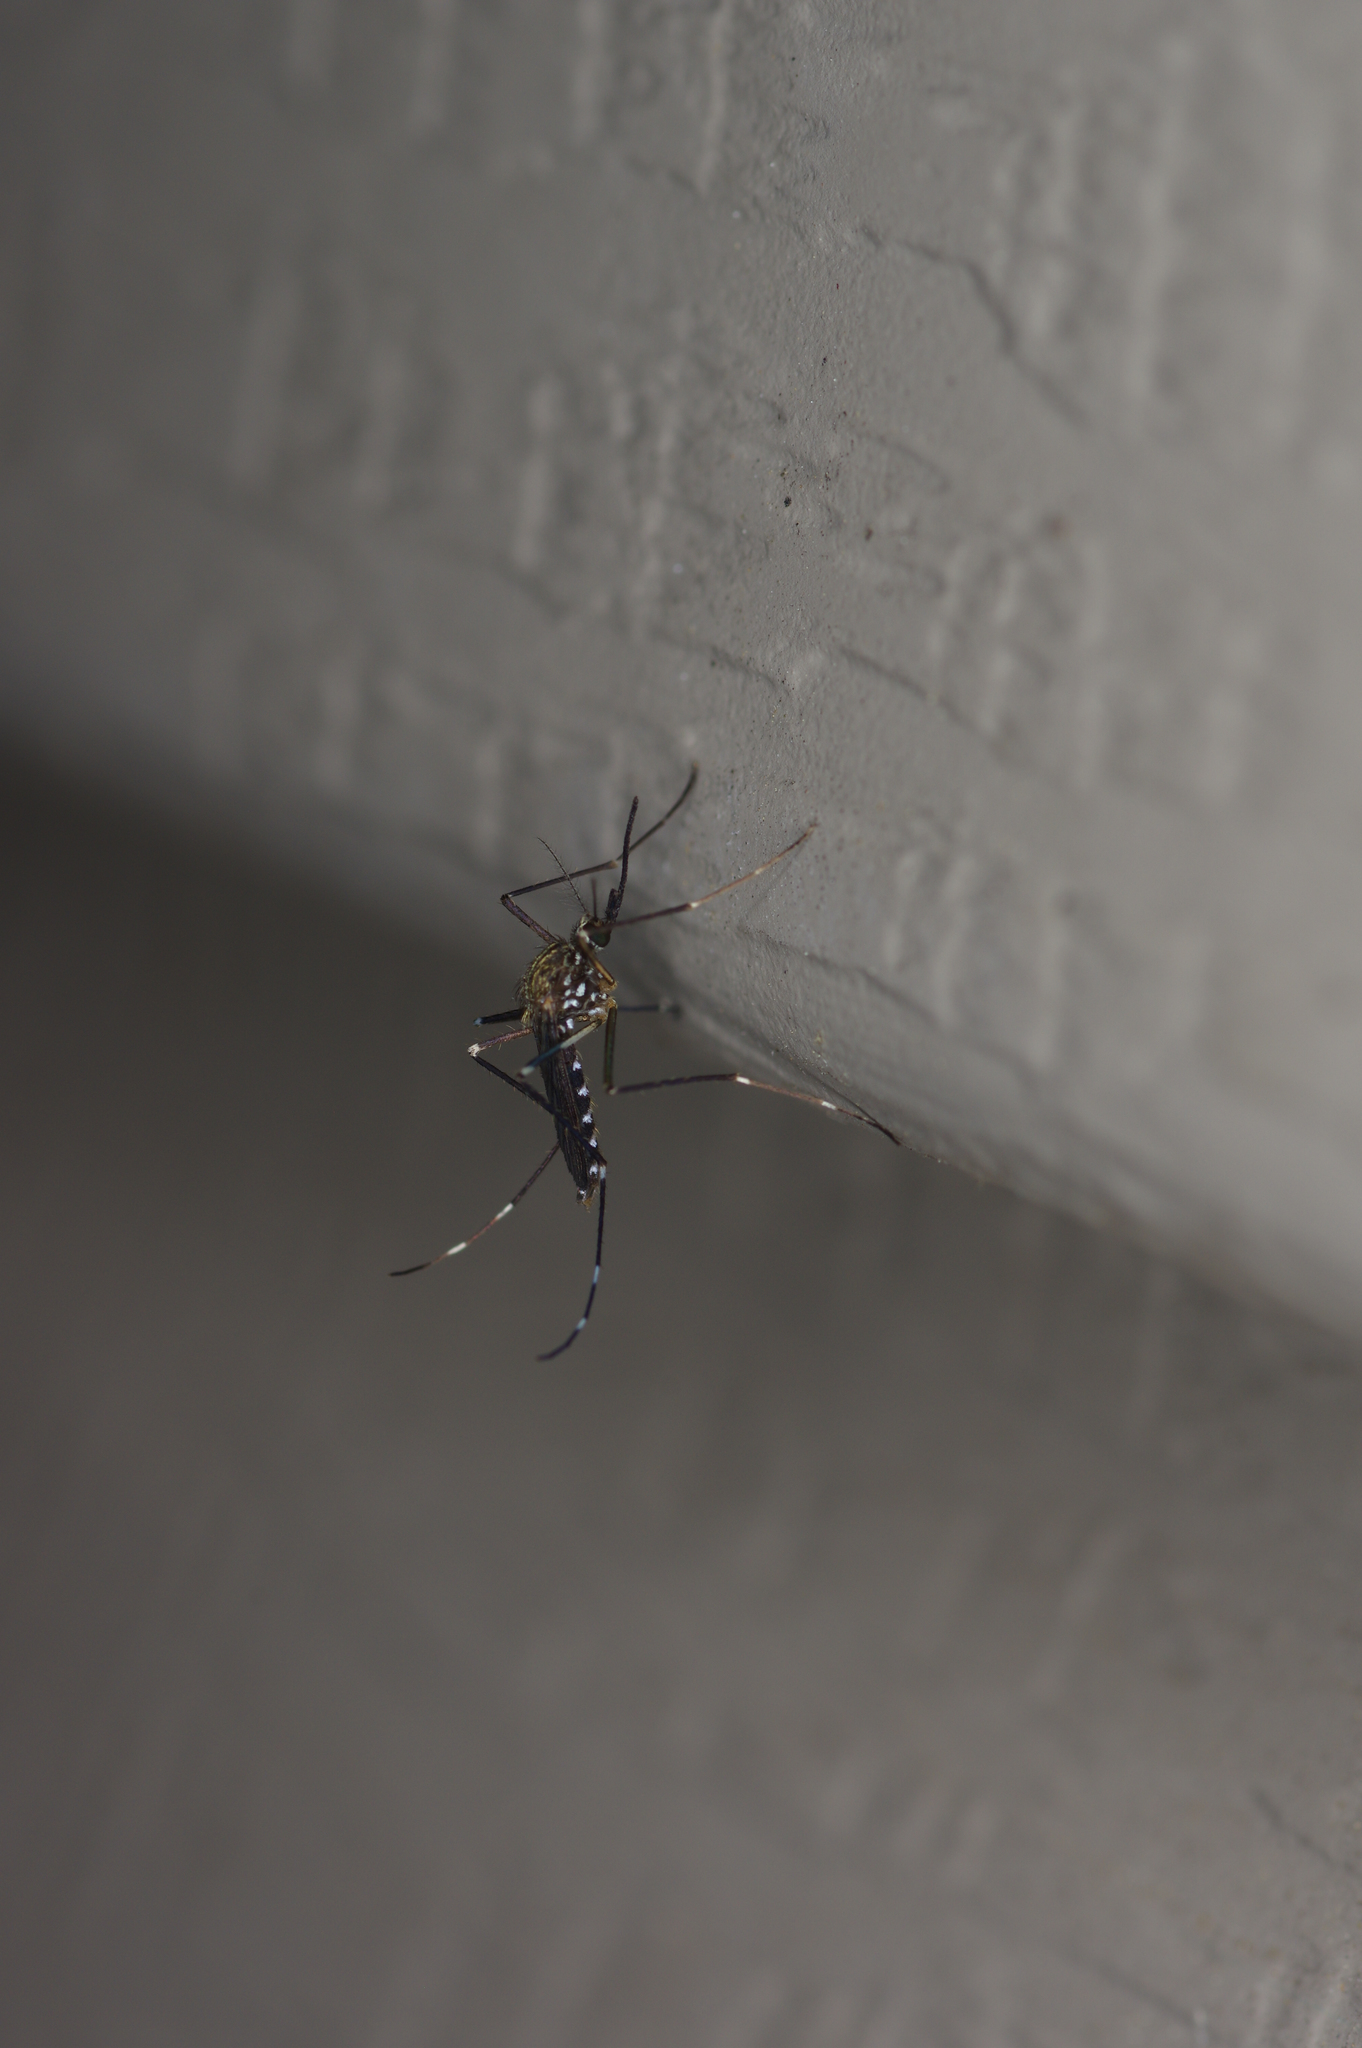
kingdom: Animalia
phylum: Arthropoda
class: Insecta
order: Diptera
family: Culicidae
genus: Aedes
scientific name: Aedes japonicus
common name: Asian bush mosquito
